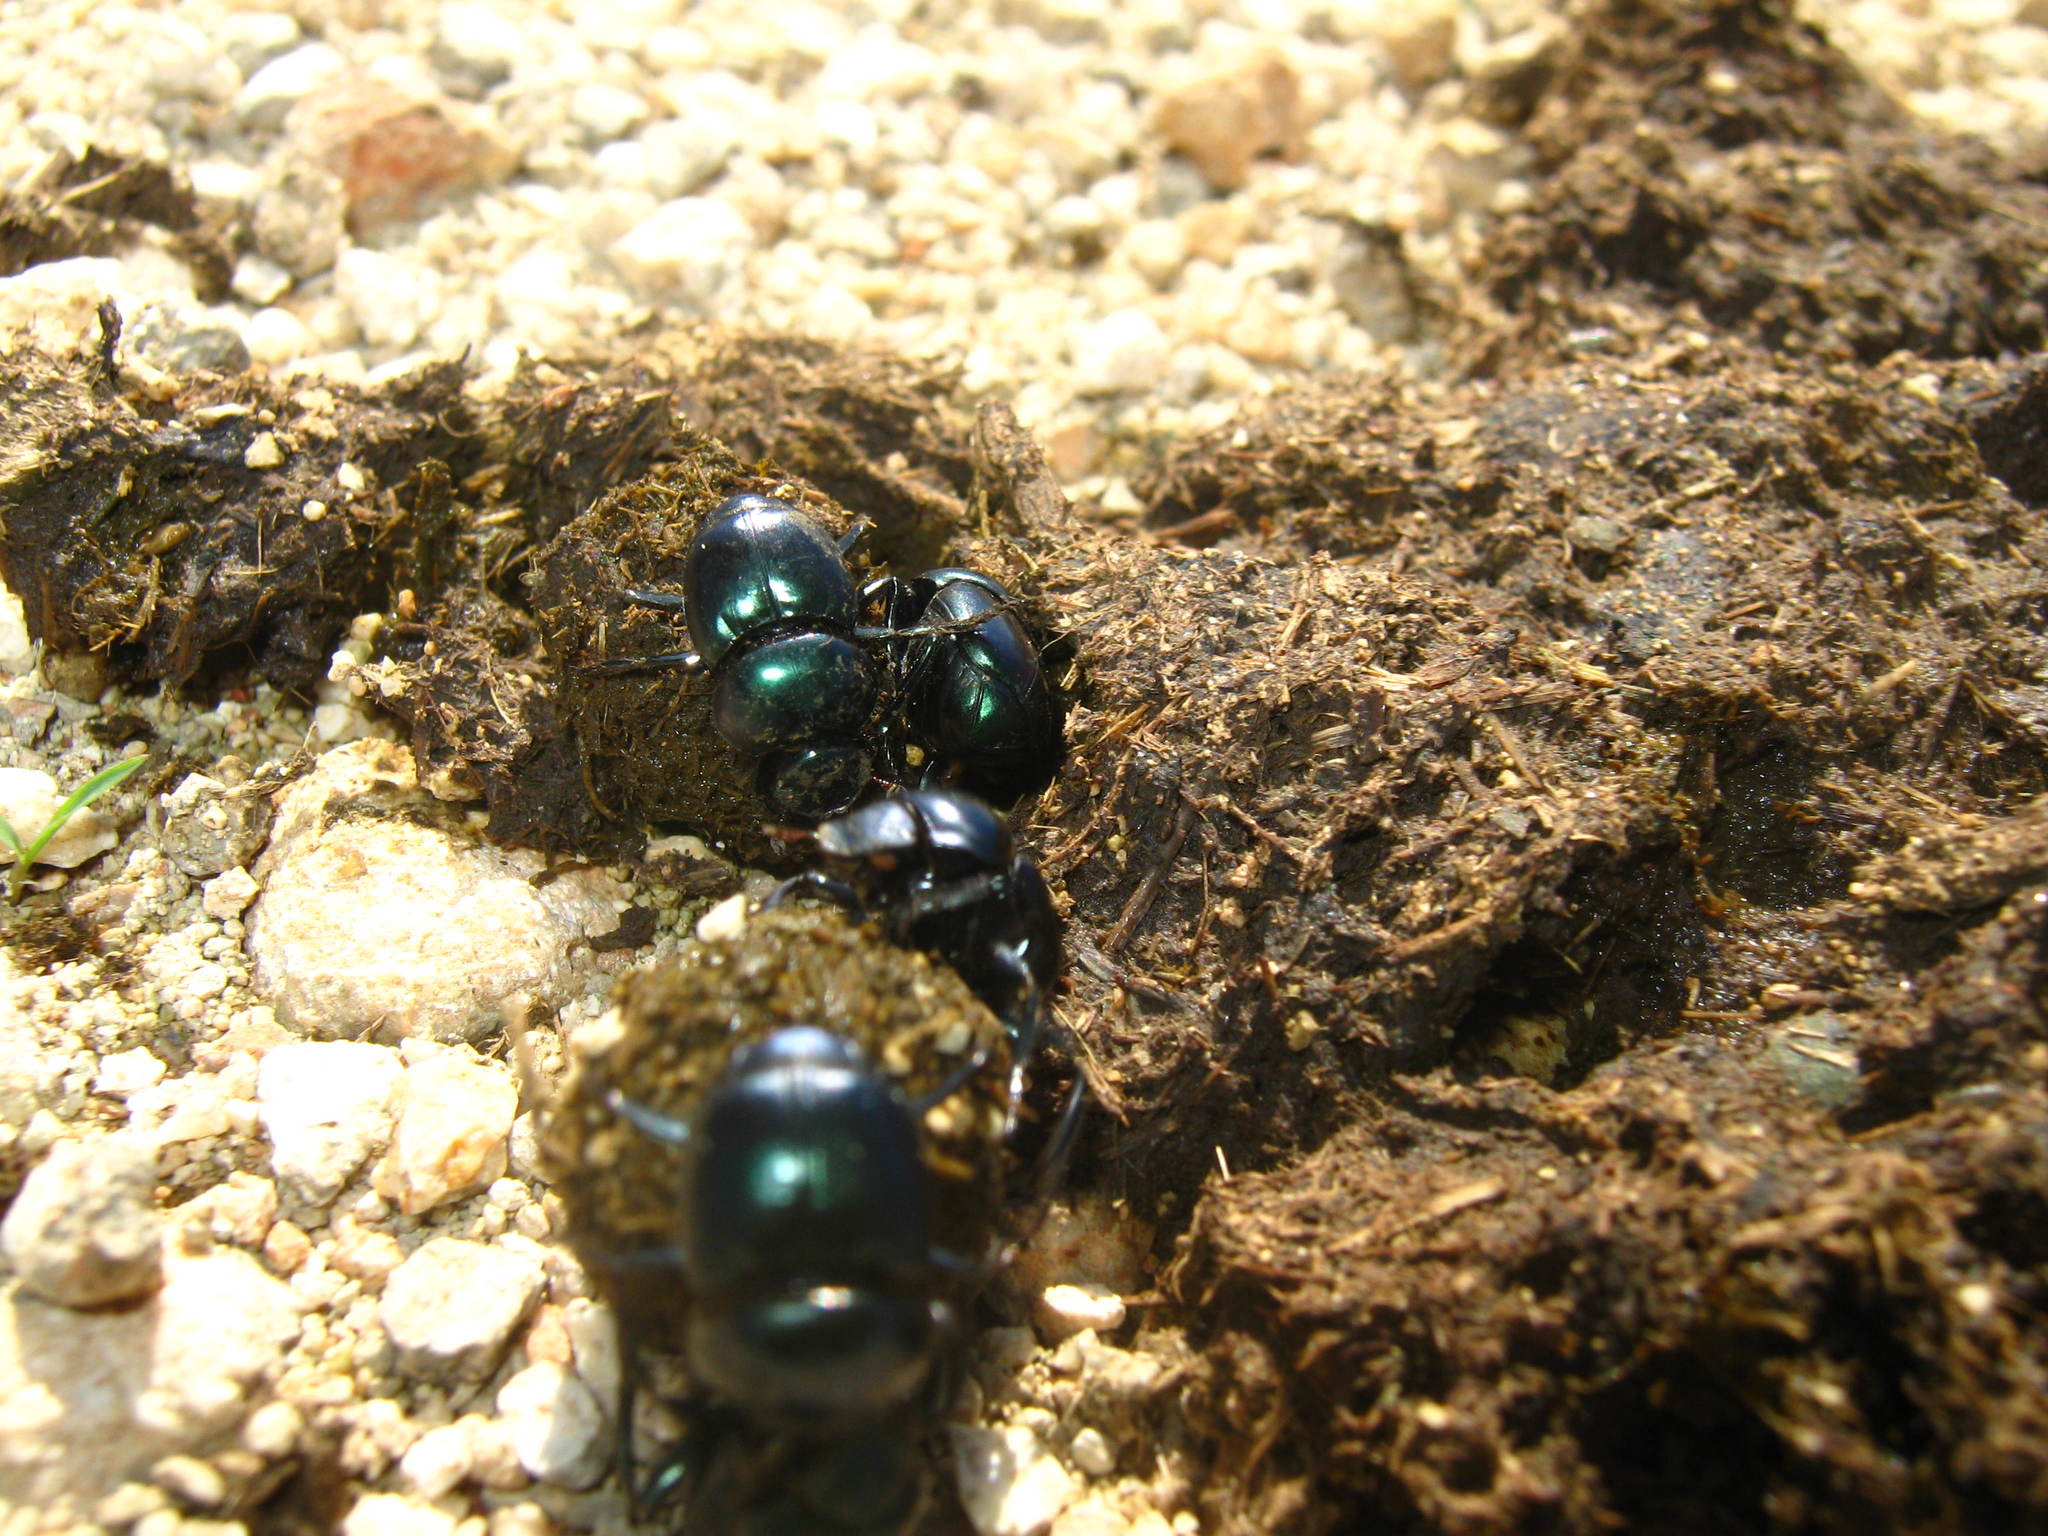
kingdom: Animalia
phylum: Arthropoda
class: Insecta
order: Coleoptera
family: Scarabaeidae
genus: Canthon
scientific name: Canthon indigaceus
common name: Tumblebug
